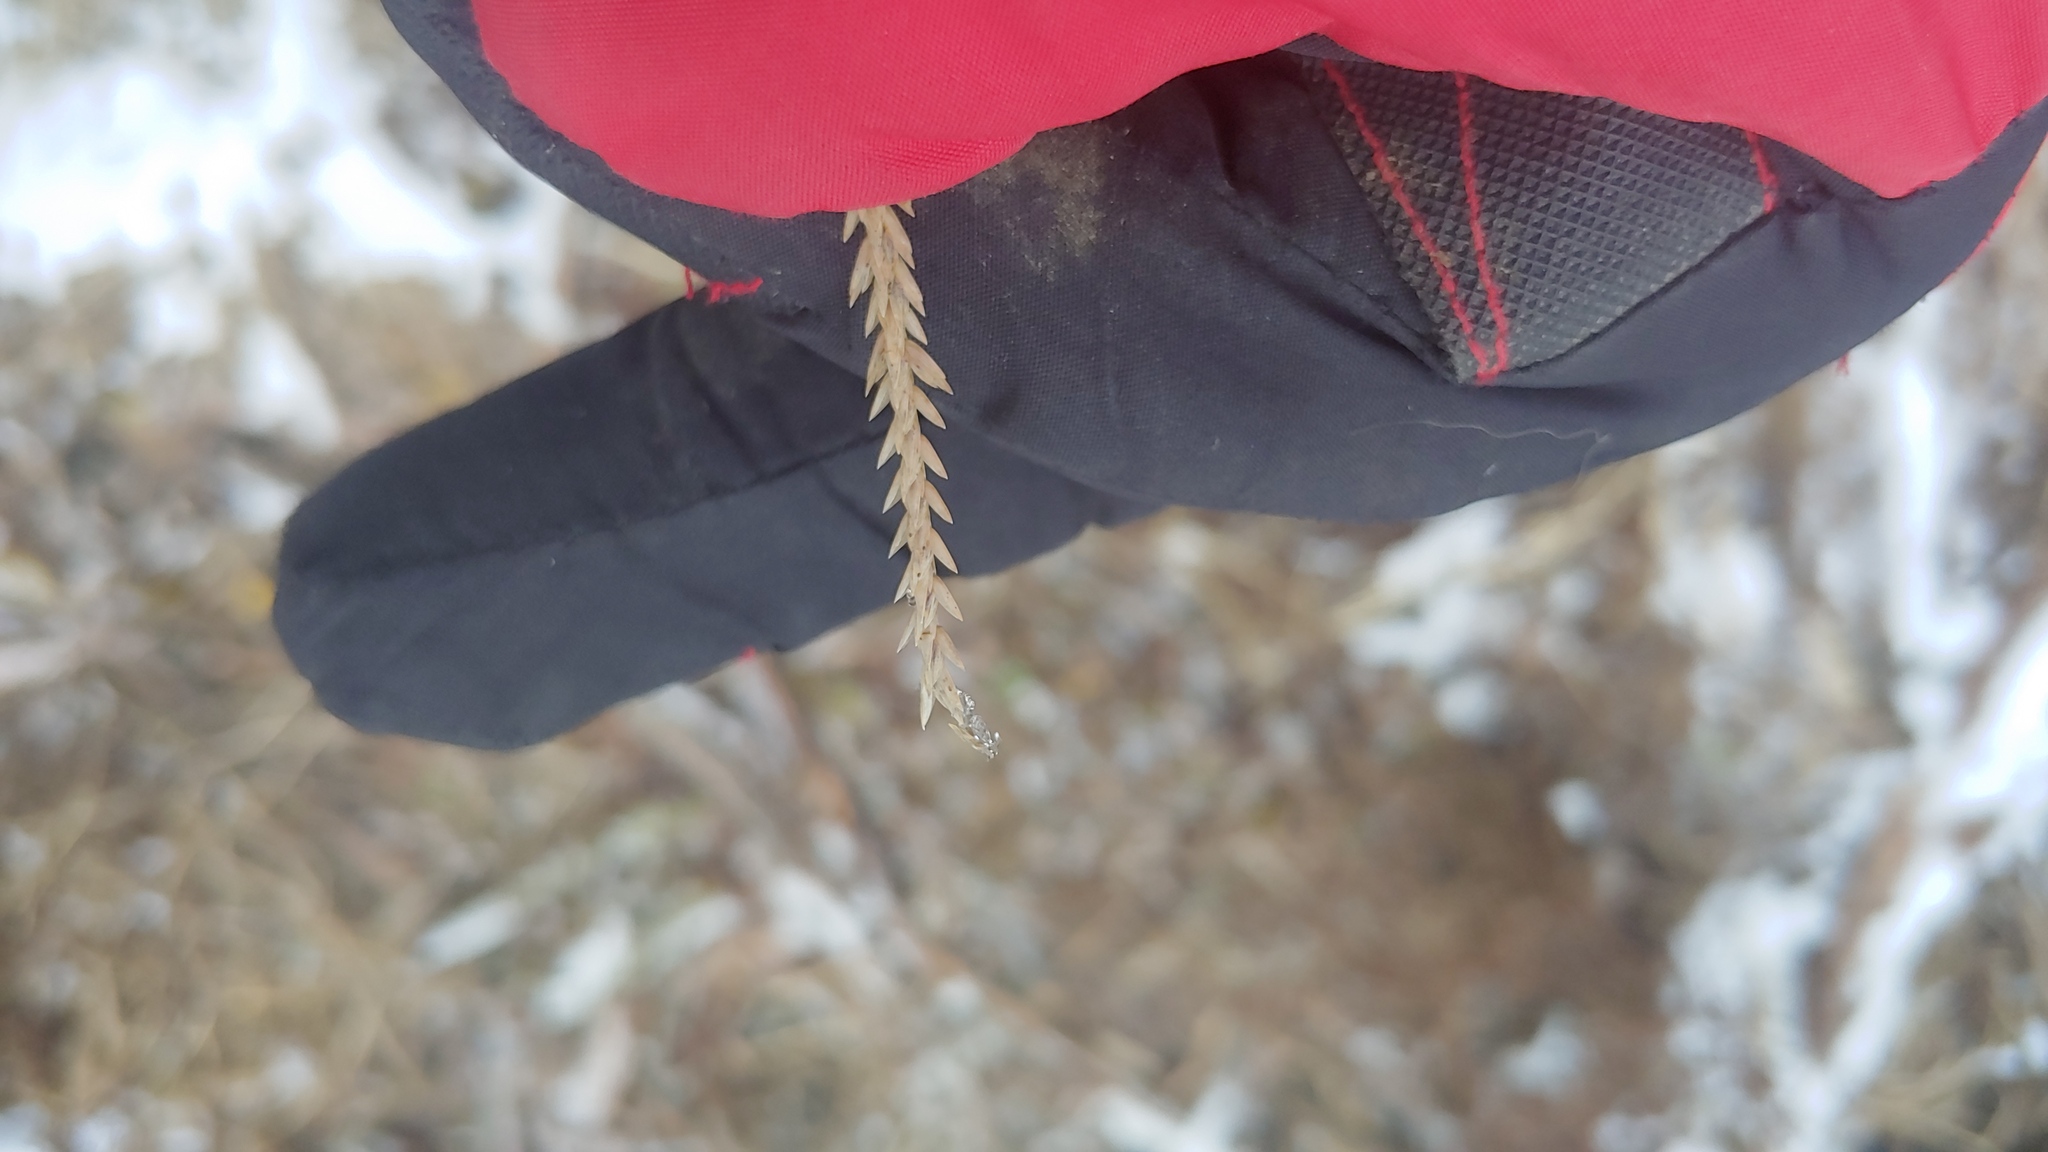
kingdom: Plantae
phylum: Tracheophyta
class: Liliopsida
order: Poales
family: Poaceae
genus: Eleusine
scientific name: Eleusine indica
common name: Yard-grass
